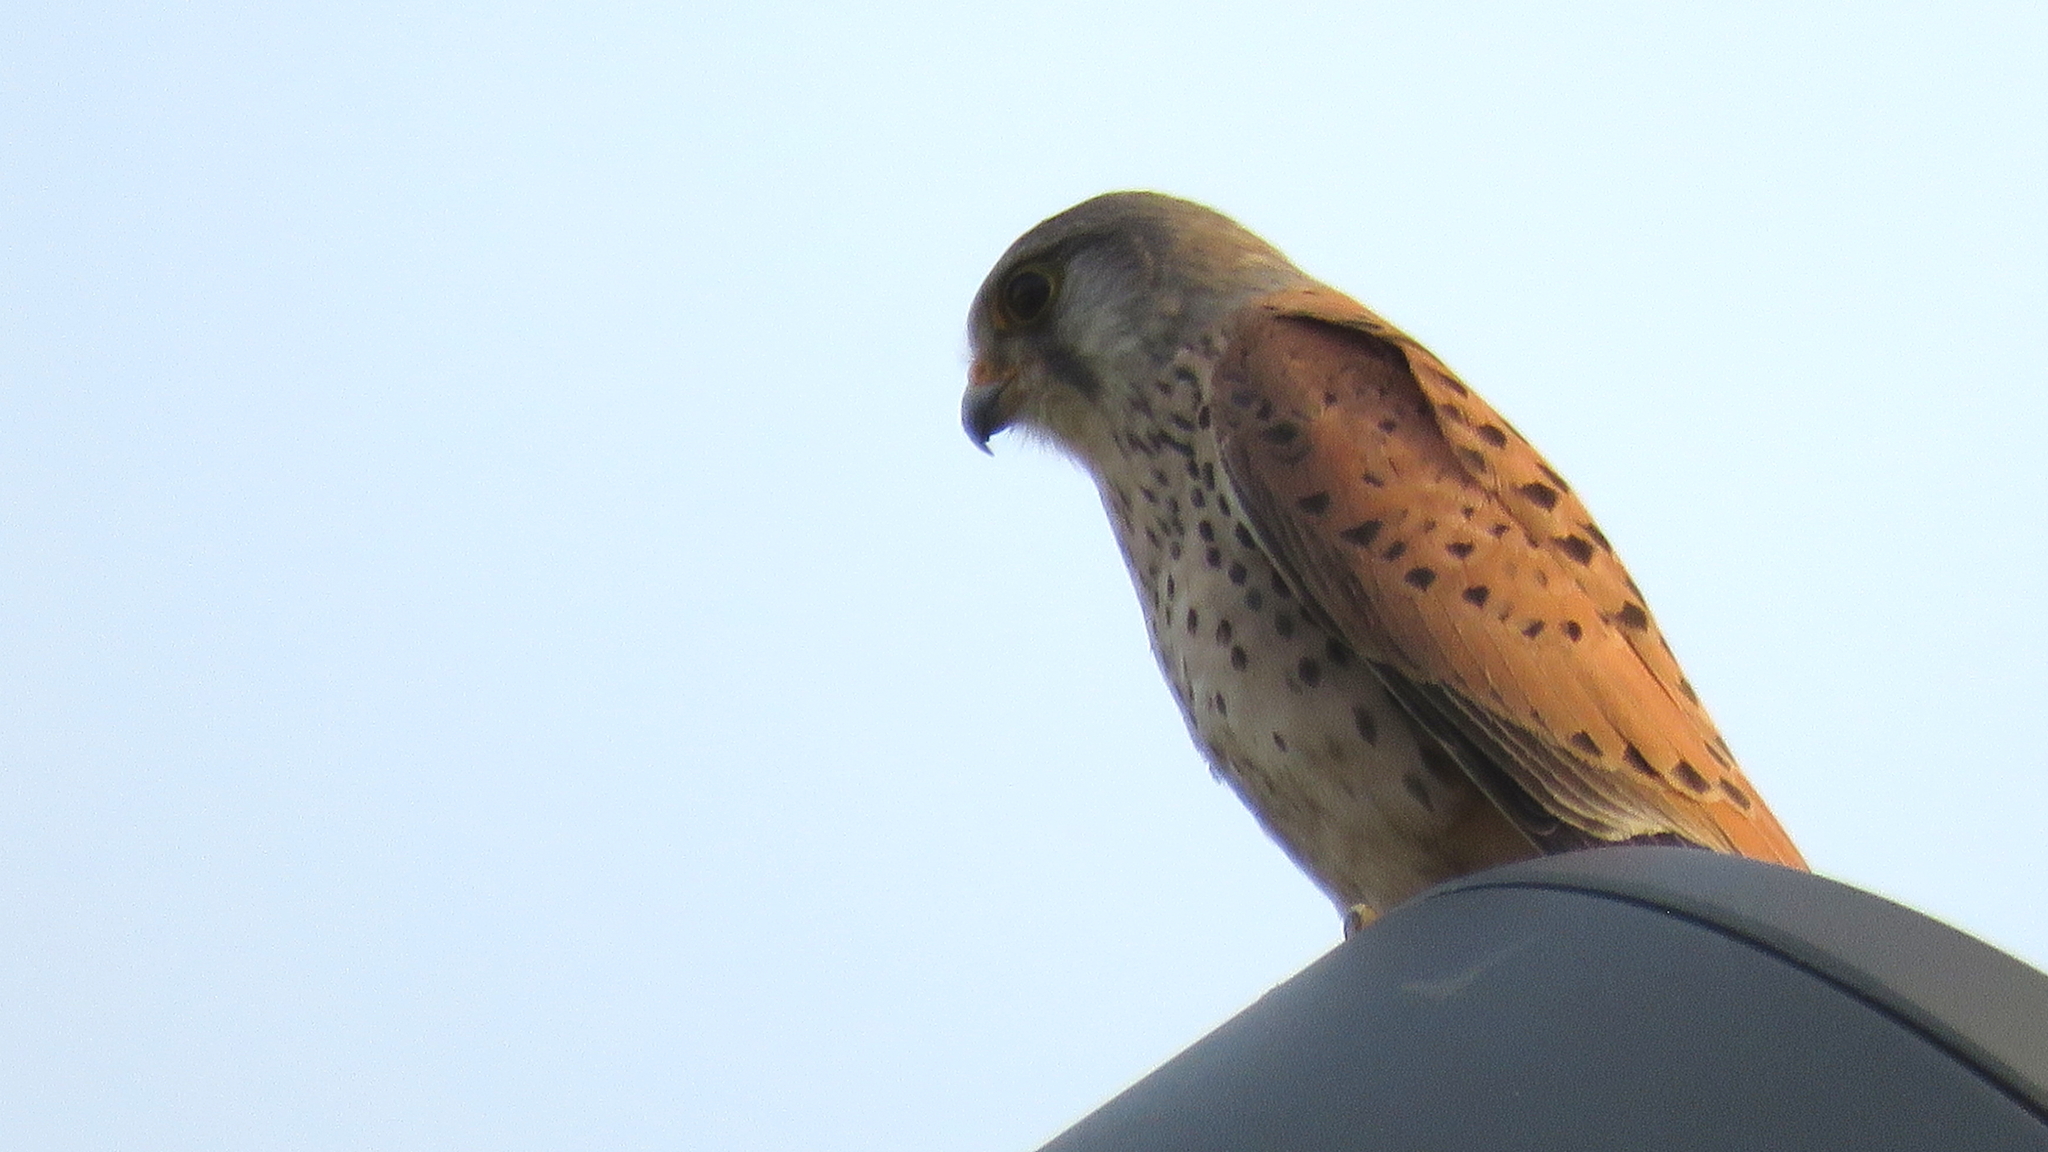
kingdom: Animalia
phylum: Chordata
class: Aves
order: Falconiformes
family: Falconidae
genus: Falco
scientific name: Falco tinnunculus
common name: Common kestrel
